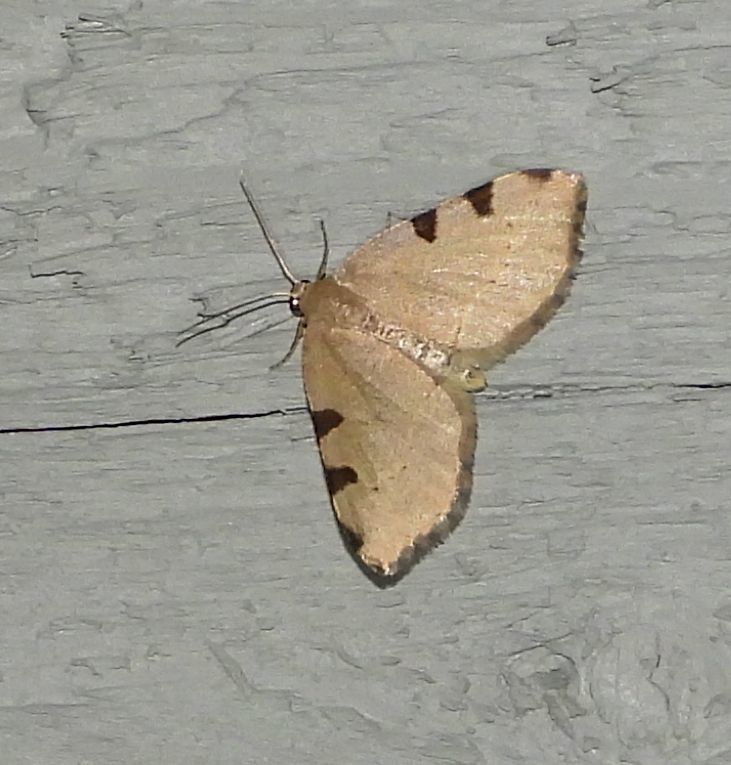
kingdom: Animalia
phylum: Arthropoda
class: Insecta
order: Lepidoptera
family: Geometridae
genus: Heterophleps
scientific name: Heterophleps triguttaria
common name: Three-spotted fillip
